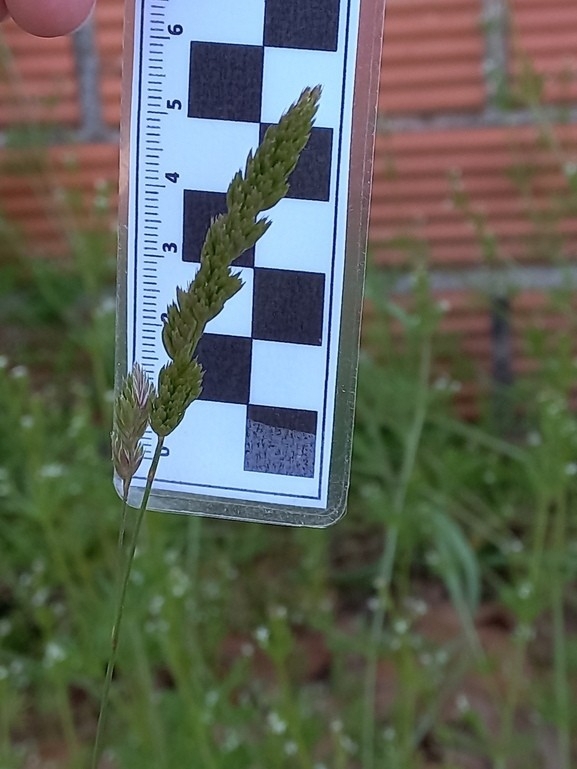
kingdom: Plantae
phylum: Tracheophyta
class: Liliopsida
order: Poales
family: Poaceae
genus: Dactylis
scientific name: Dactylis glomerata
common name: Orchardgrass
